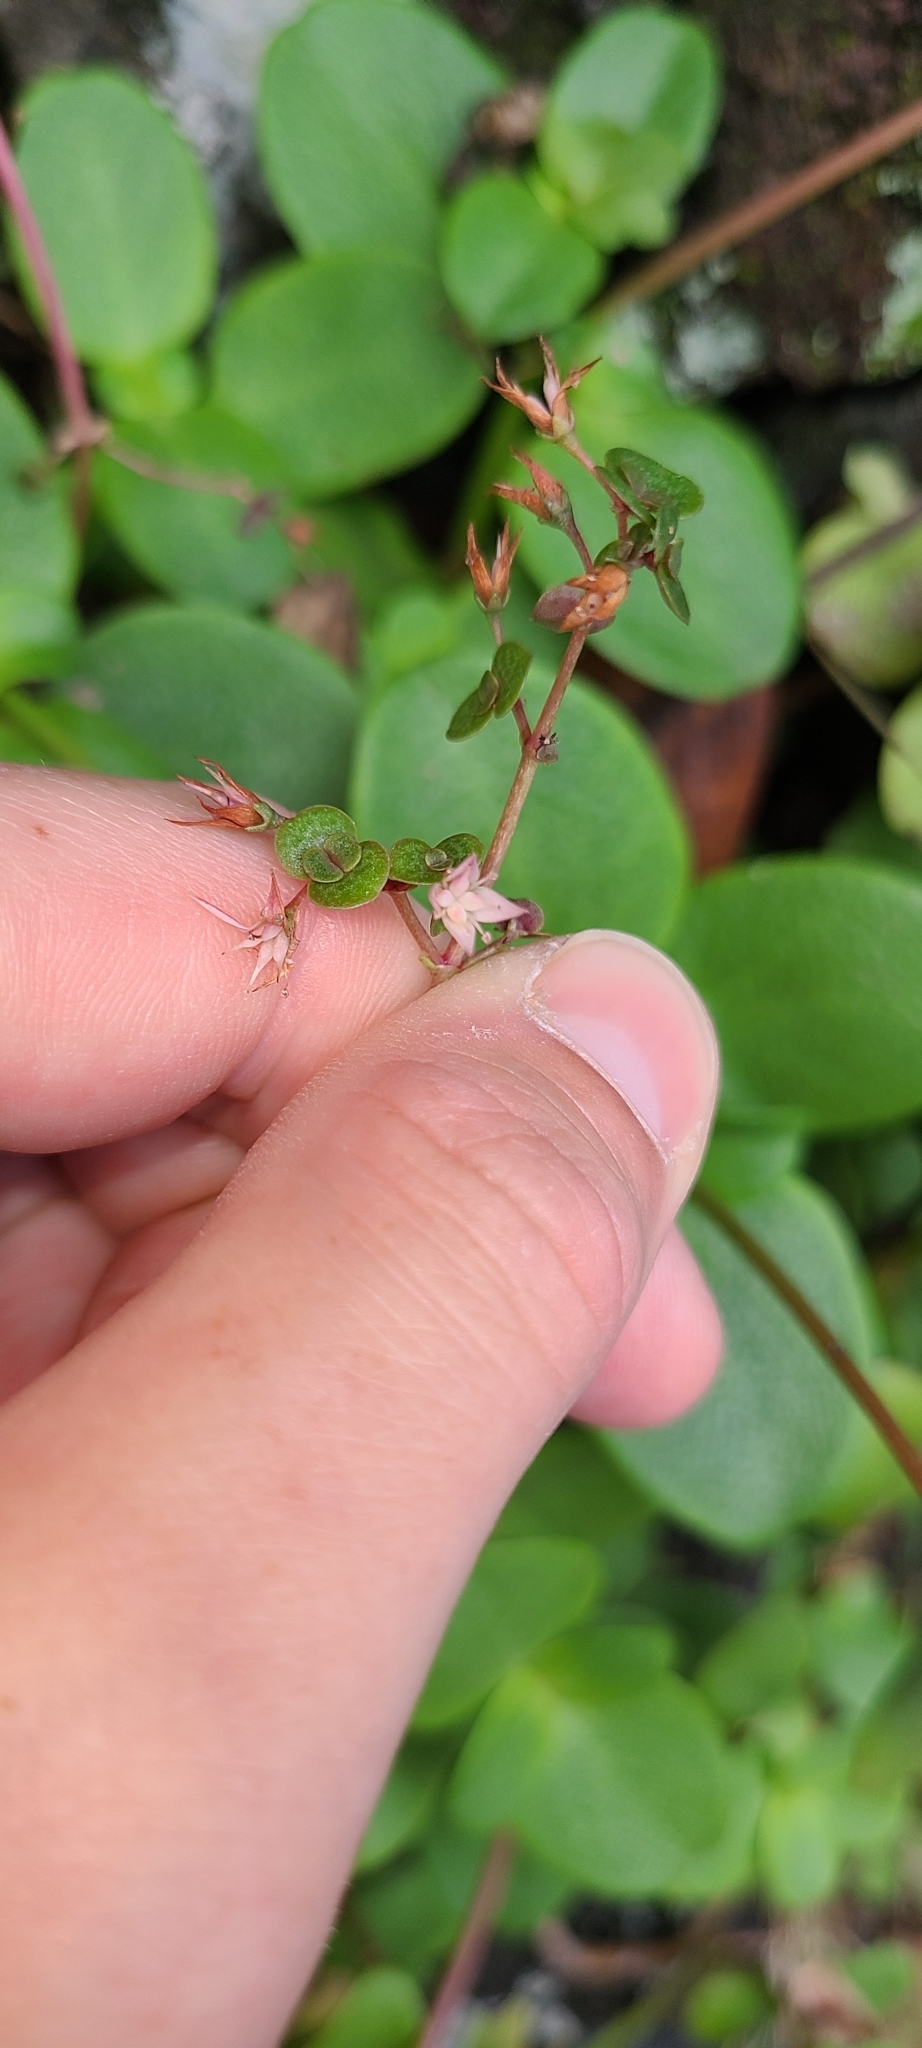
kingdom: Plantae
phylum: Tracheophyta
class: Magnoliopsida
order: Saxifragales
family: Crassulaceae
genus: Crassula
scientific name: Crassula multicava
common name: Cape province pygmyweed
